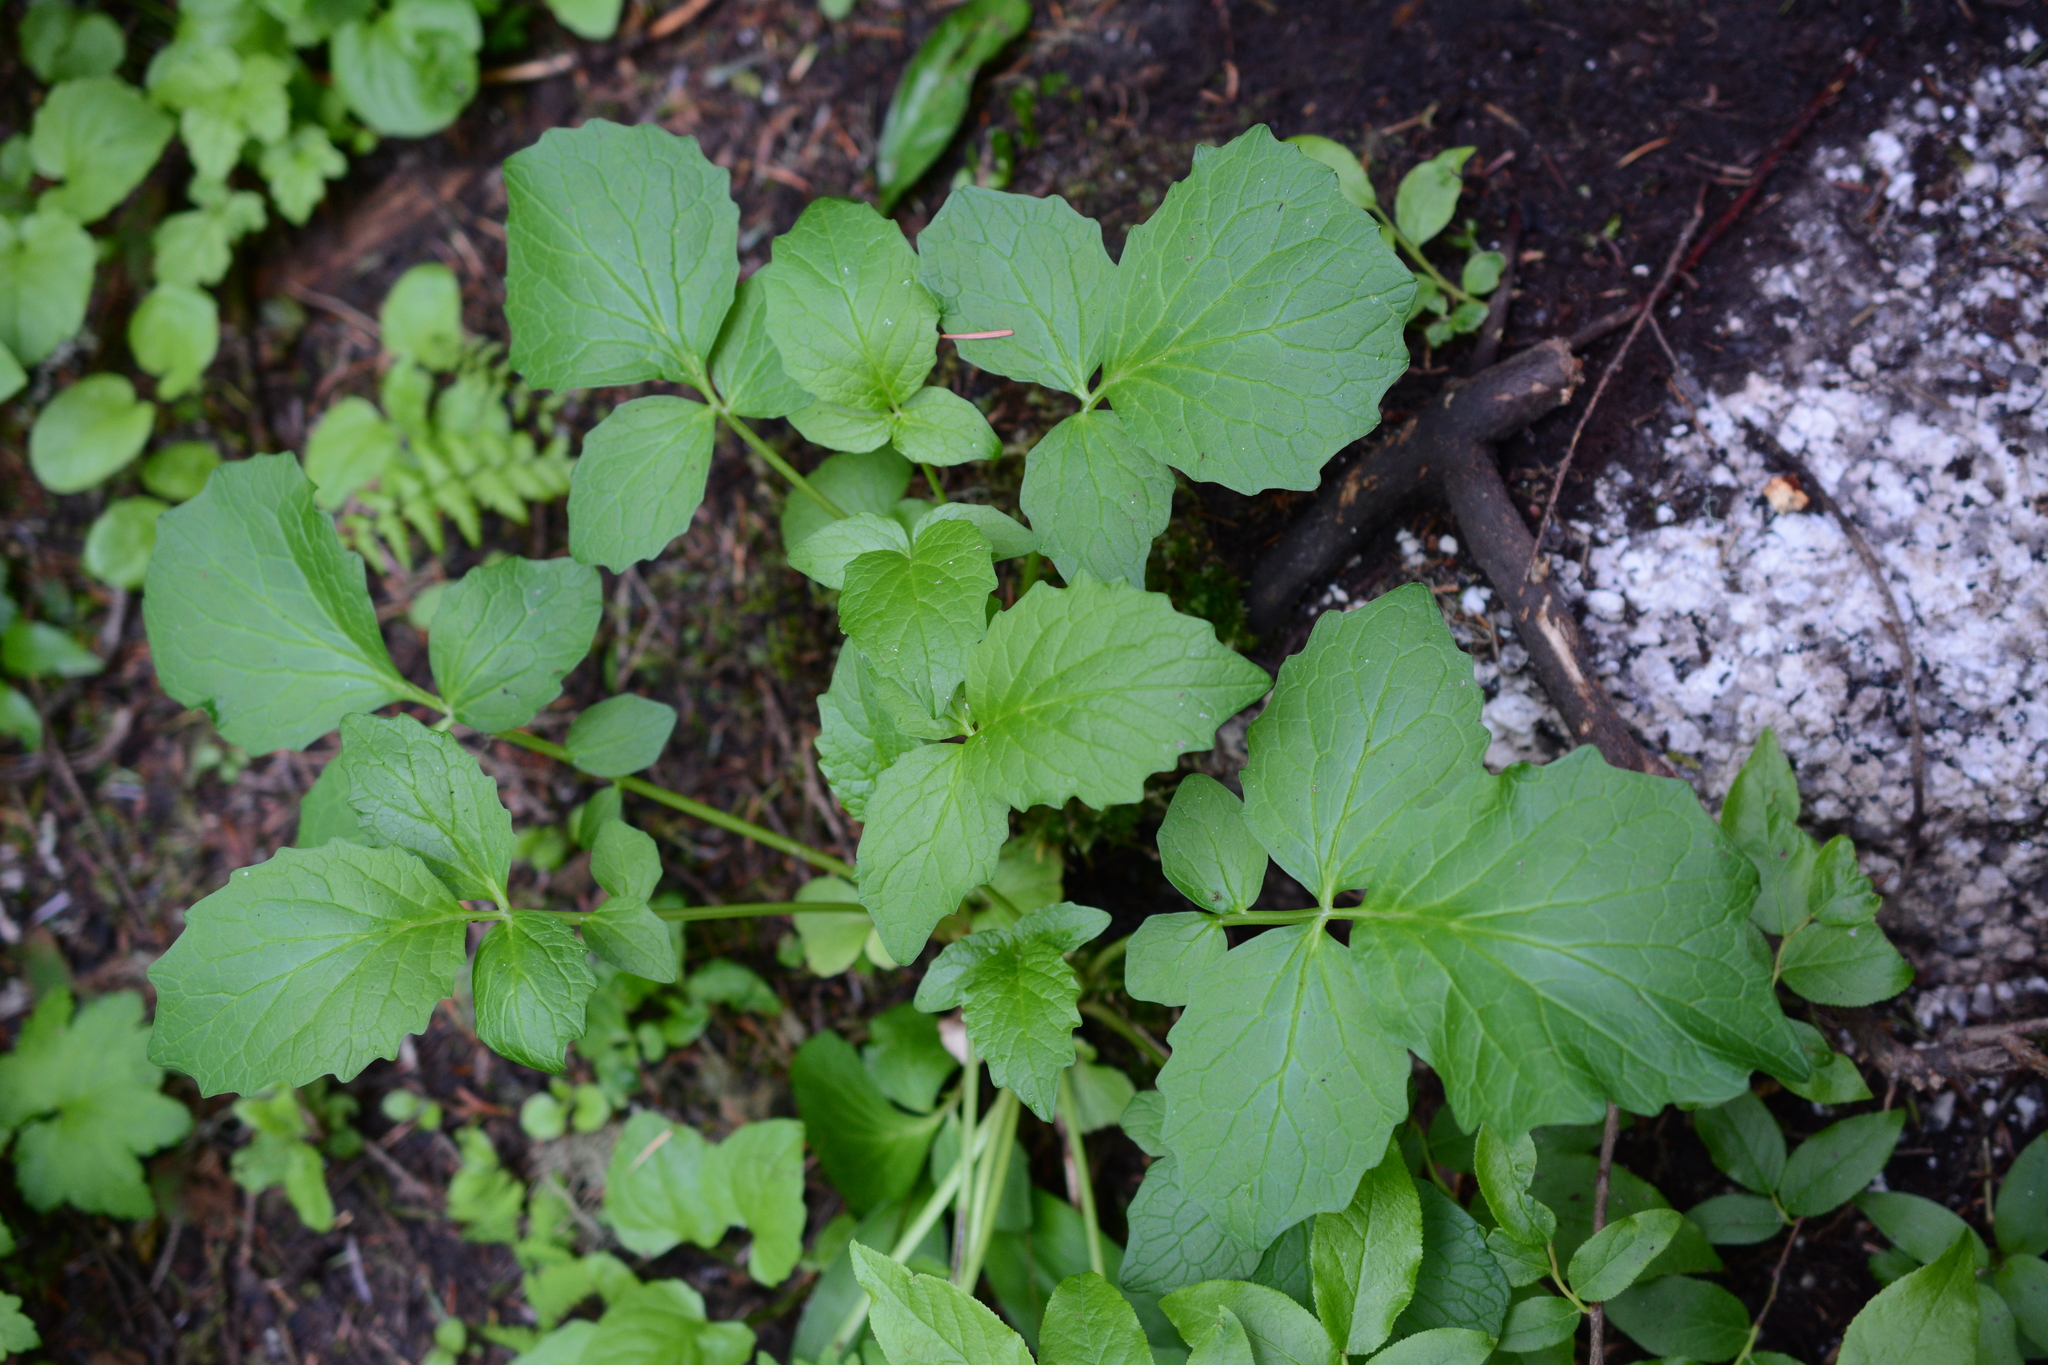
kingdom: Plantae
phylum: Tracheophyta
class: Magnoliopsida
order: Dipsacales
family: Caprifoliaceae
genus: Valeriana
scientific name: Valeriana sitchensis
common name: Pacific valerian
